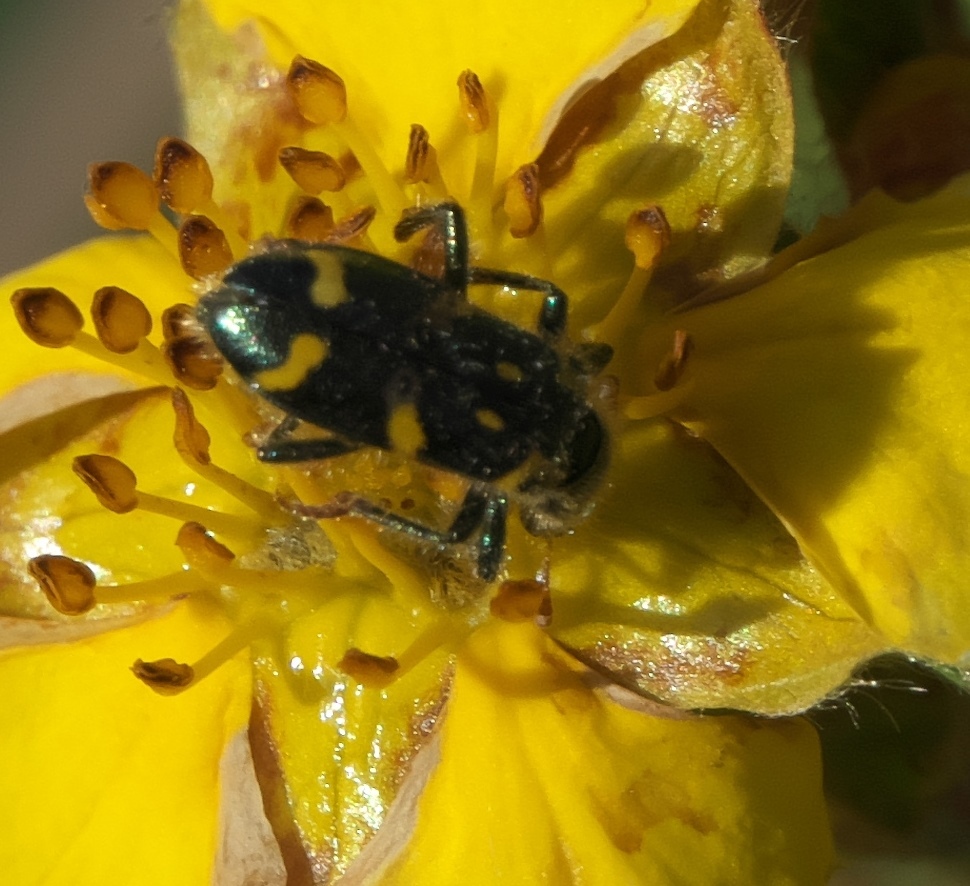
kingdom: Animalia
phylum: Arthropoda
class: Insecta
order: Coleoptera
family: Cleridae
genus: Trichodes
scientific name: Trichodes ornatus
